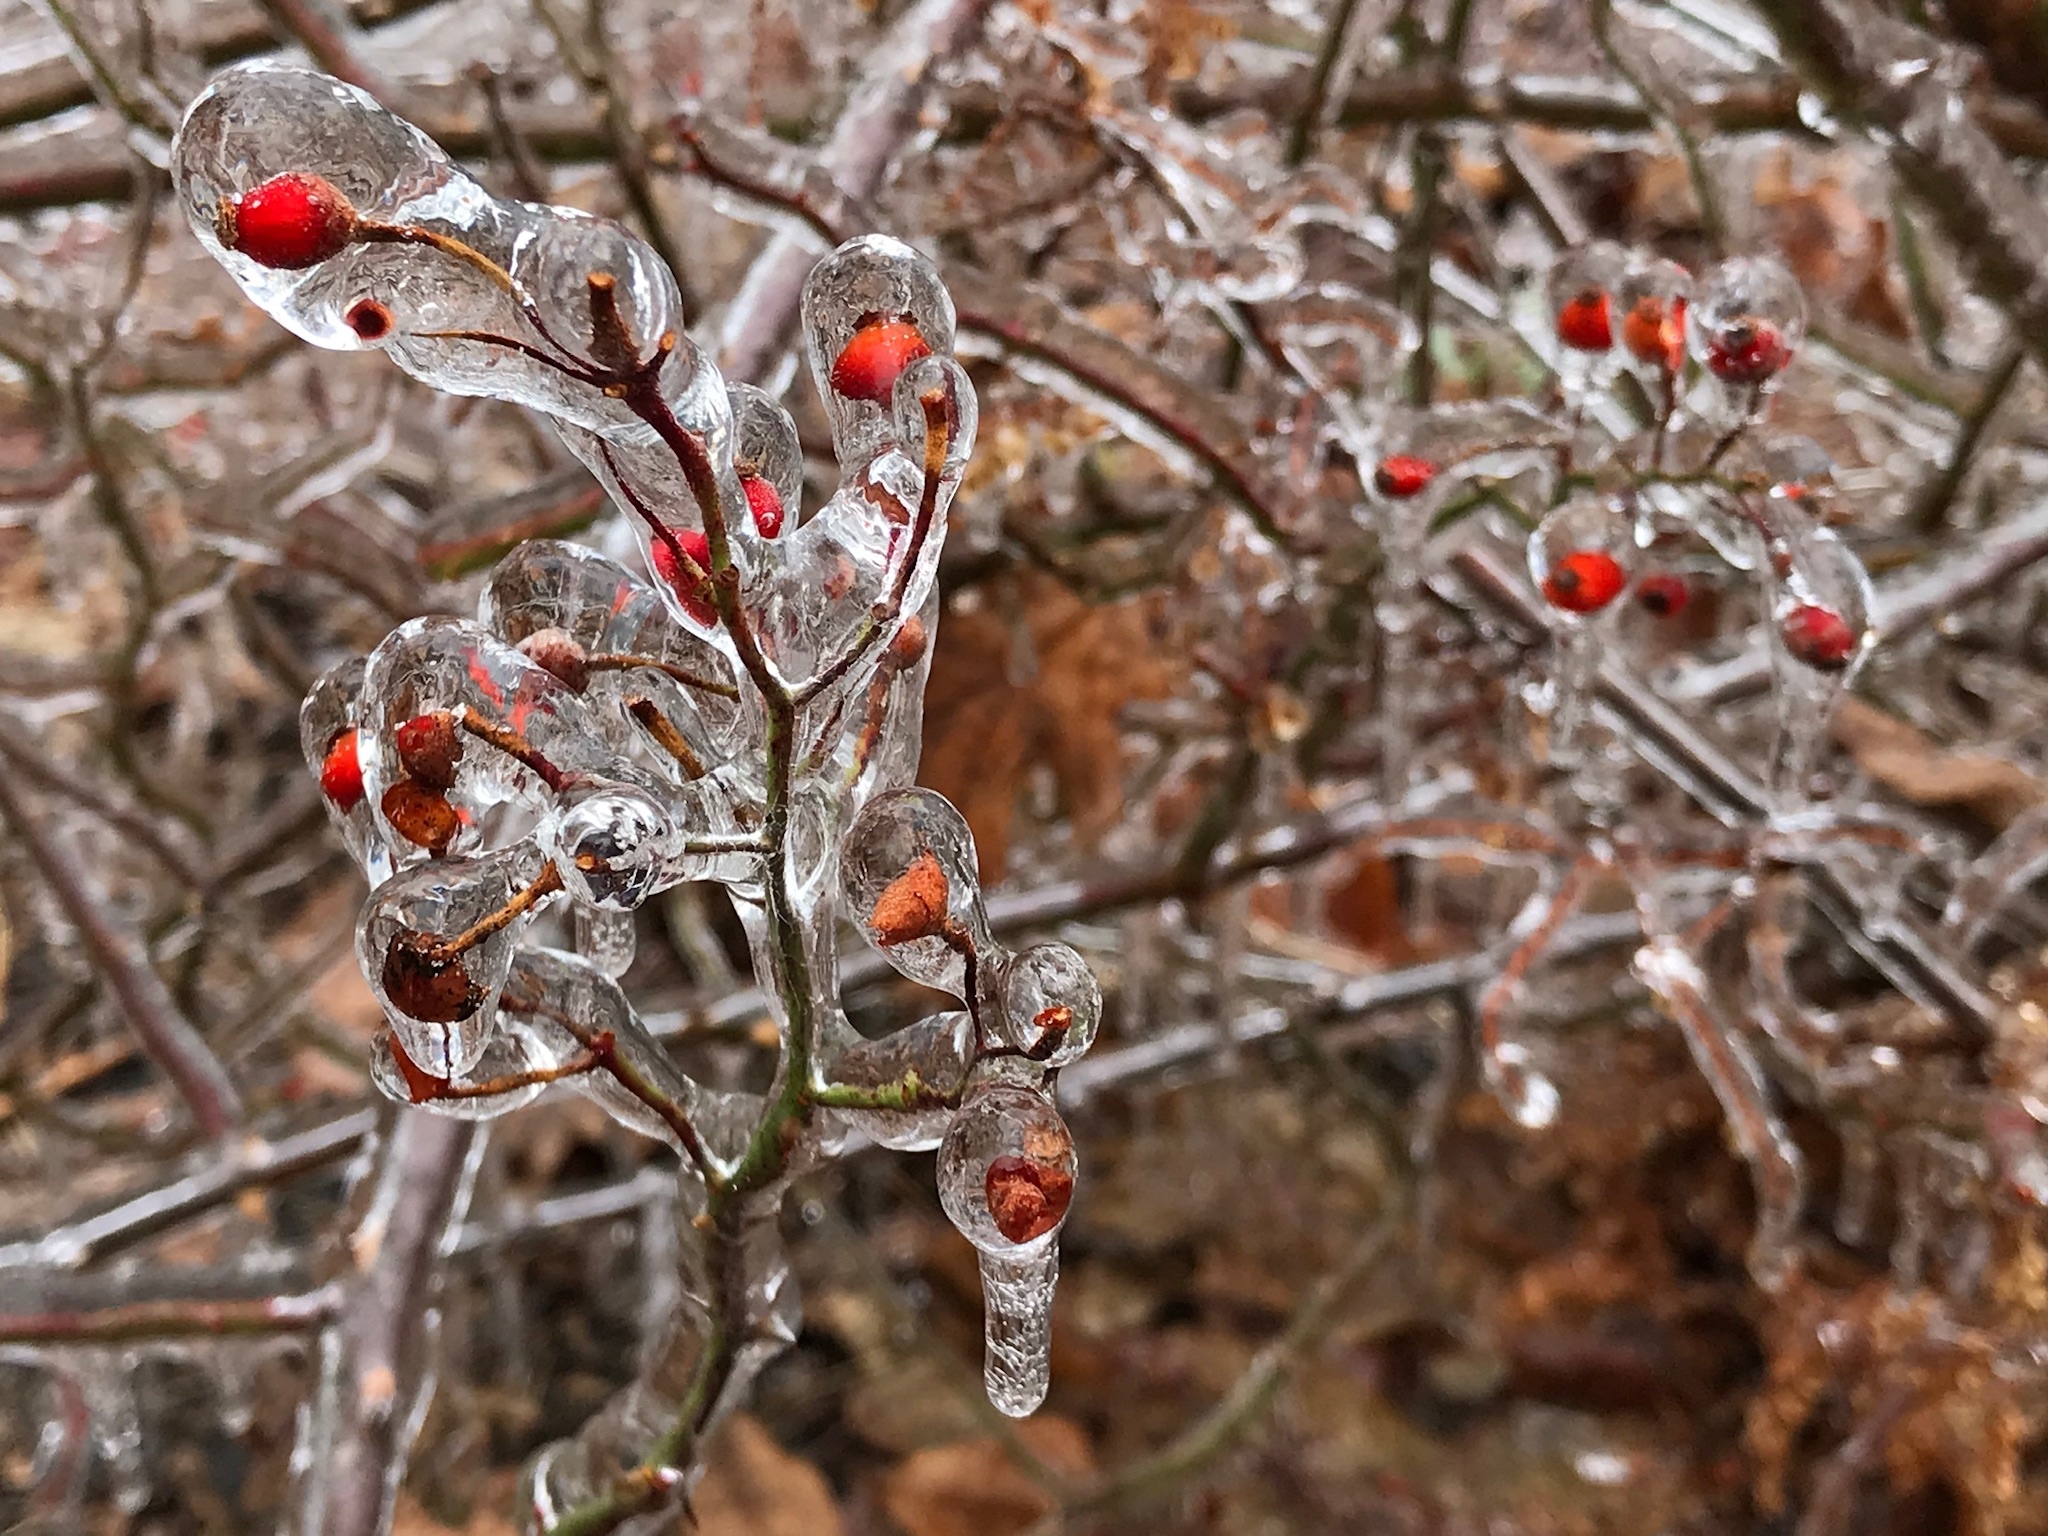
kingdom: Plantae
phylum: Tracheophyta
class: Magnoliopsida
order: Rosales
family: Rosaceae
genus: Rosa
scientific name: Rosa multiflora
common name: Multiflora rose
